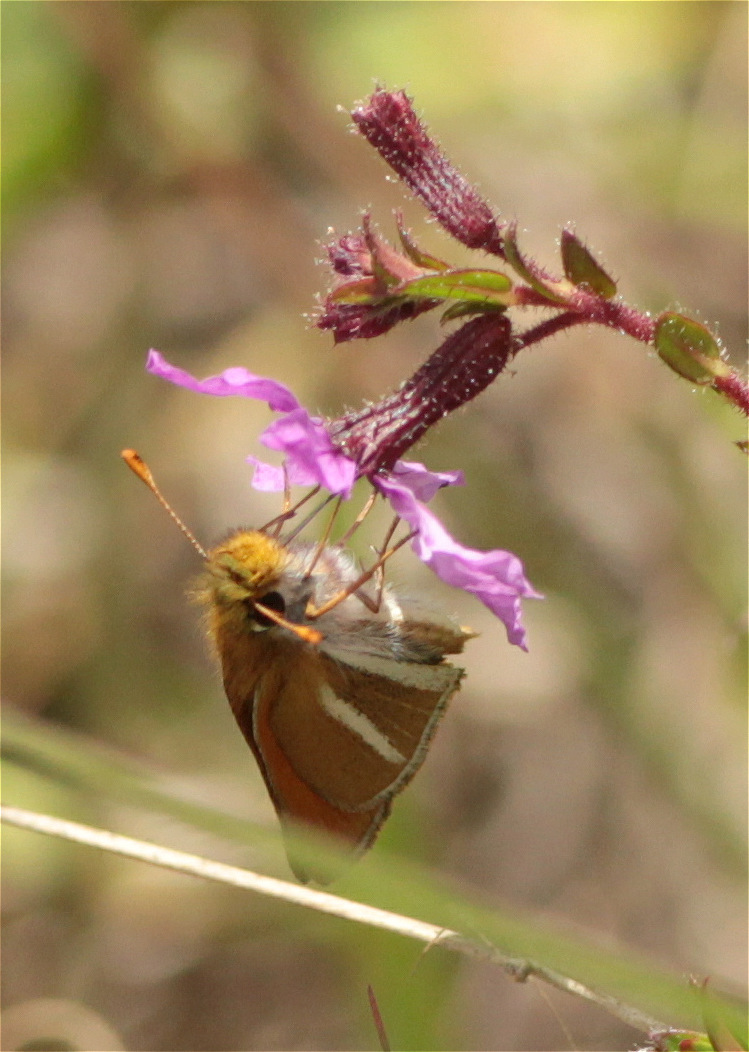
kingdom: Animalia
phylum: Arthropoda
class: Insecta
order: Lepidoptera
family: Hesperiidae
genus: Oarisma
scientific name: Oarisma boeta
